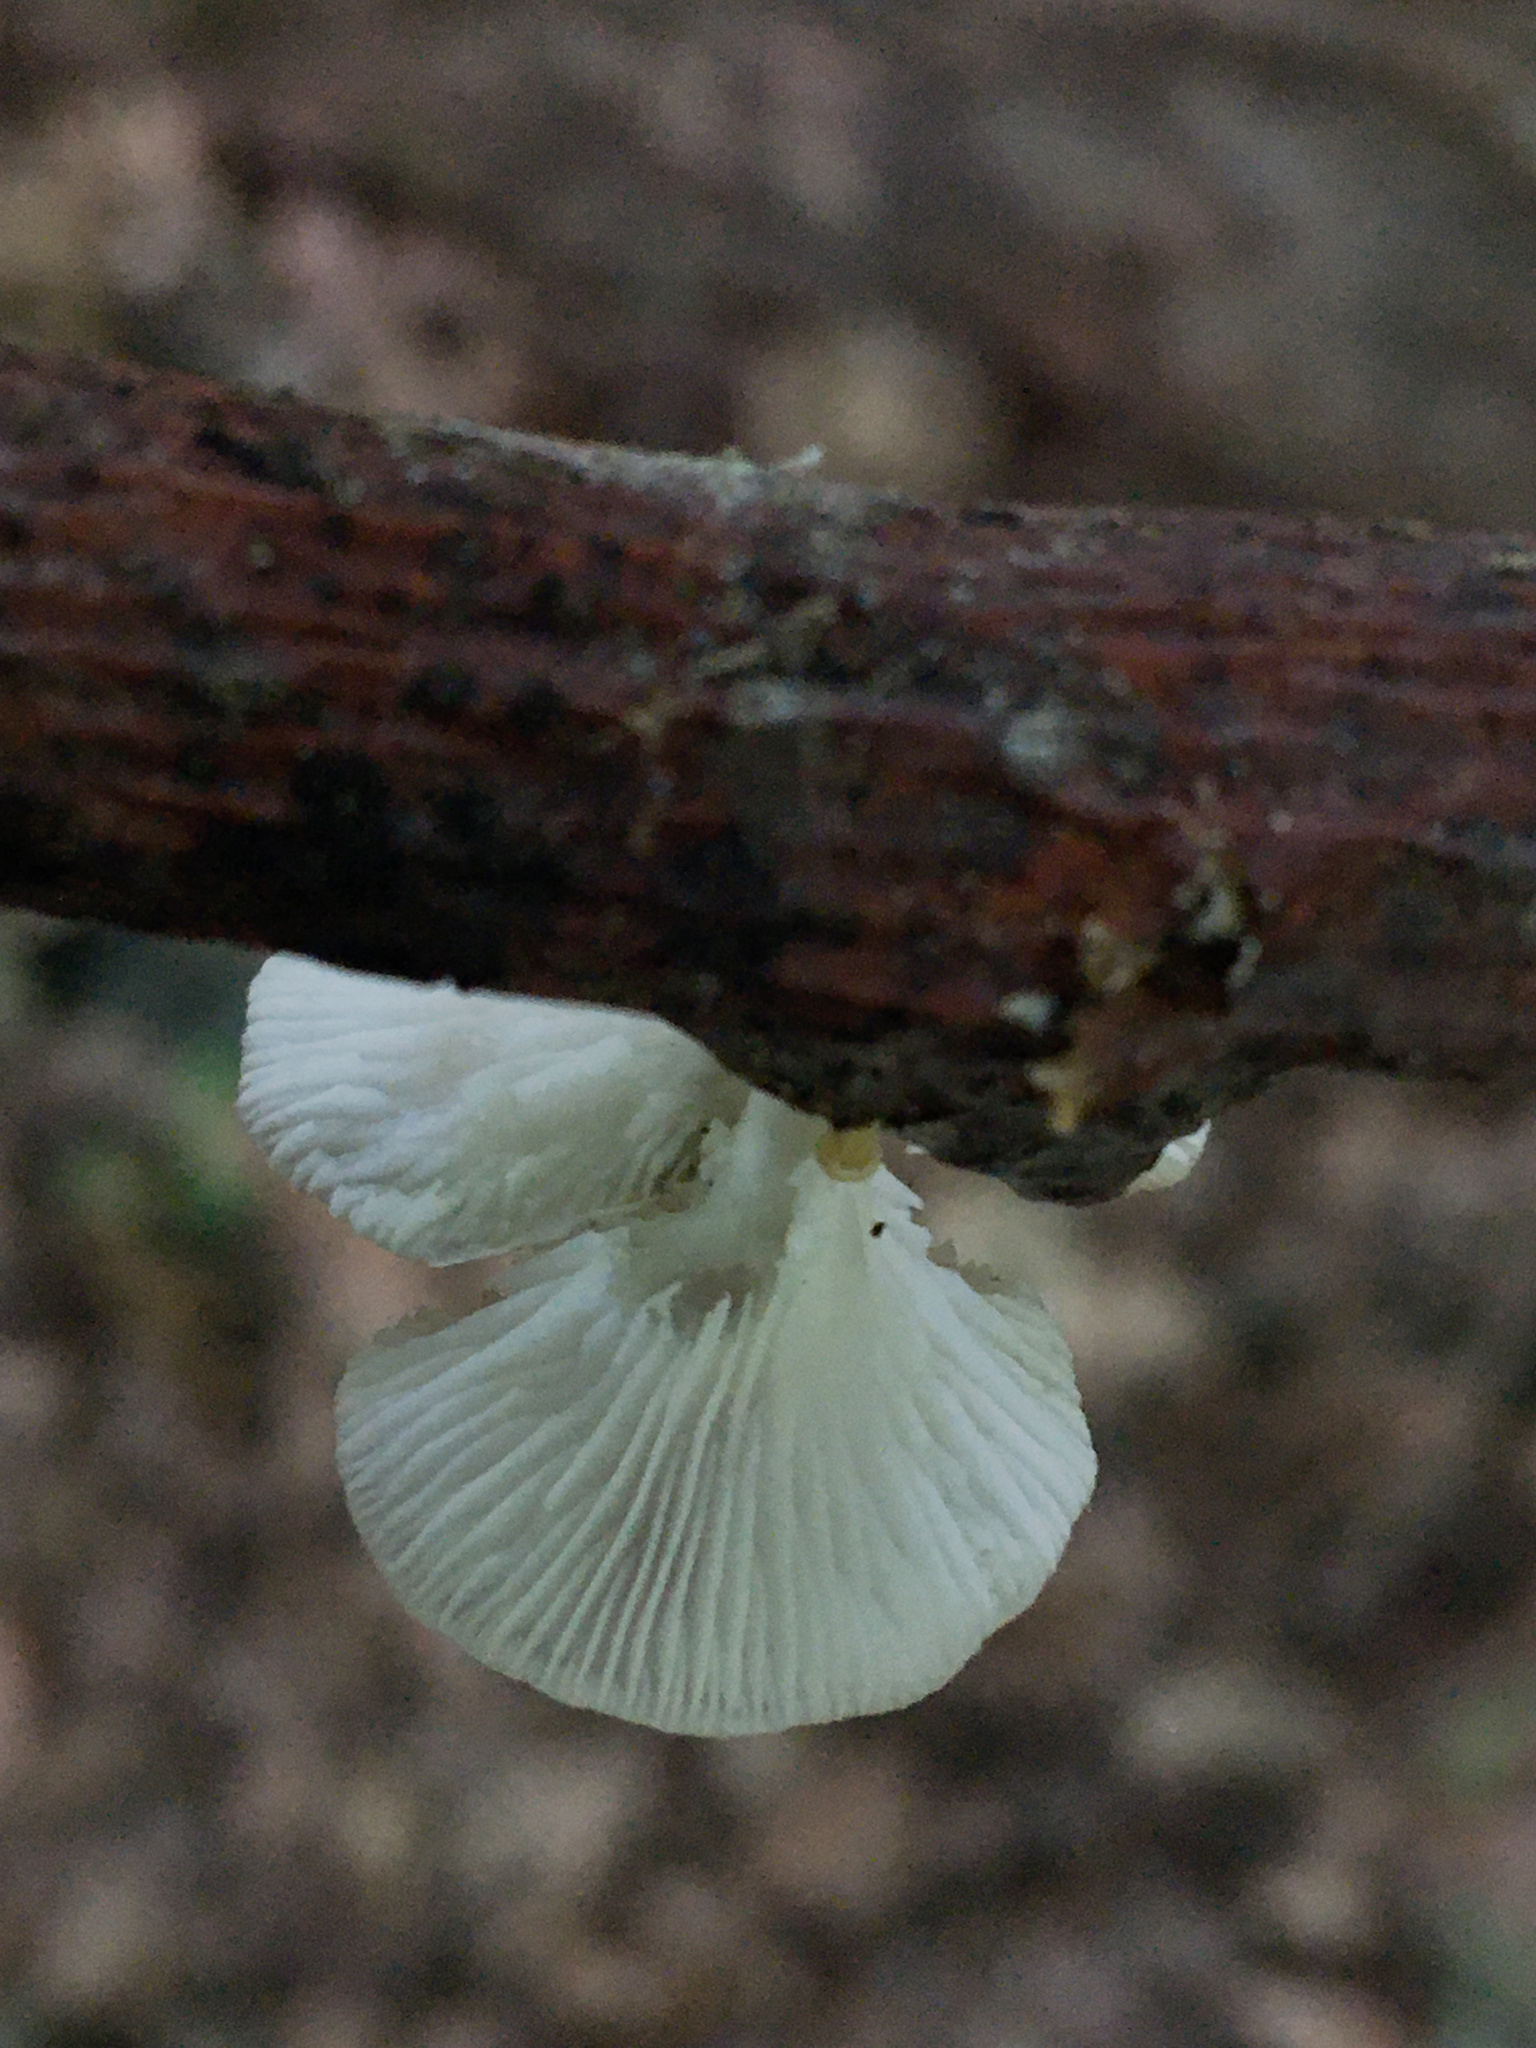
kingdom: Fungi
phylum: Basidiomycota
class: Agaricomycetes
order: Agaricales
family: Pleurotaceae
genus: Pleurotus
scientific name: Pleurotus pulmonarius
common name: Pale oyster
